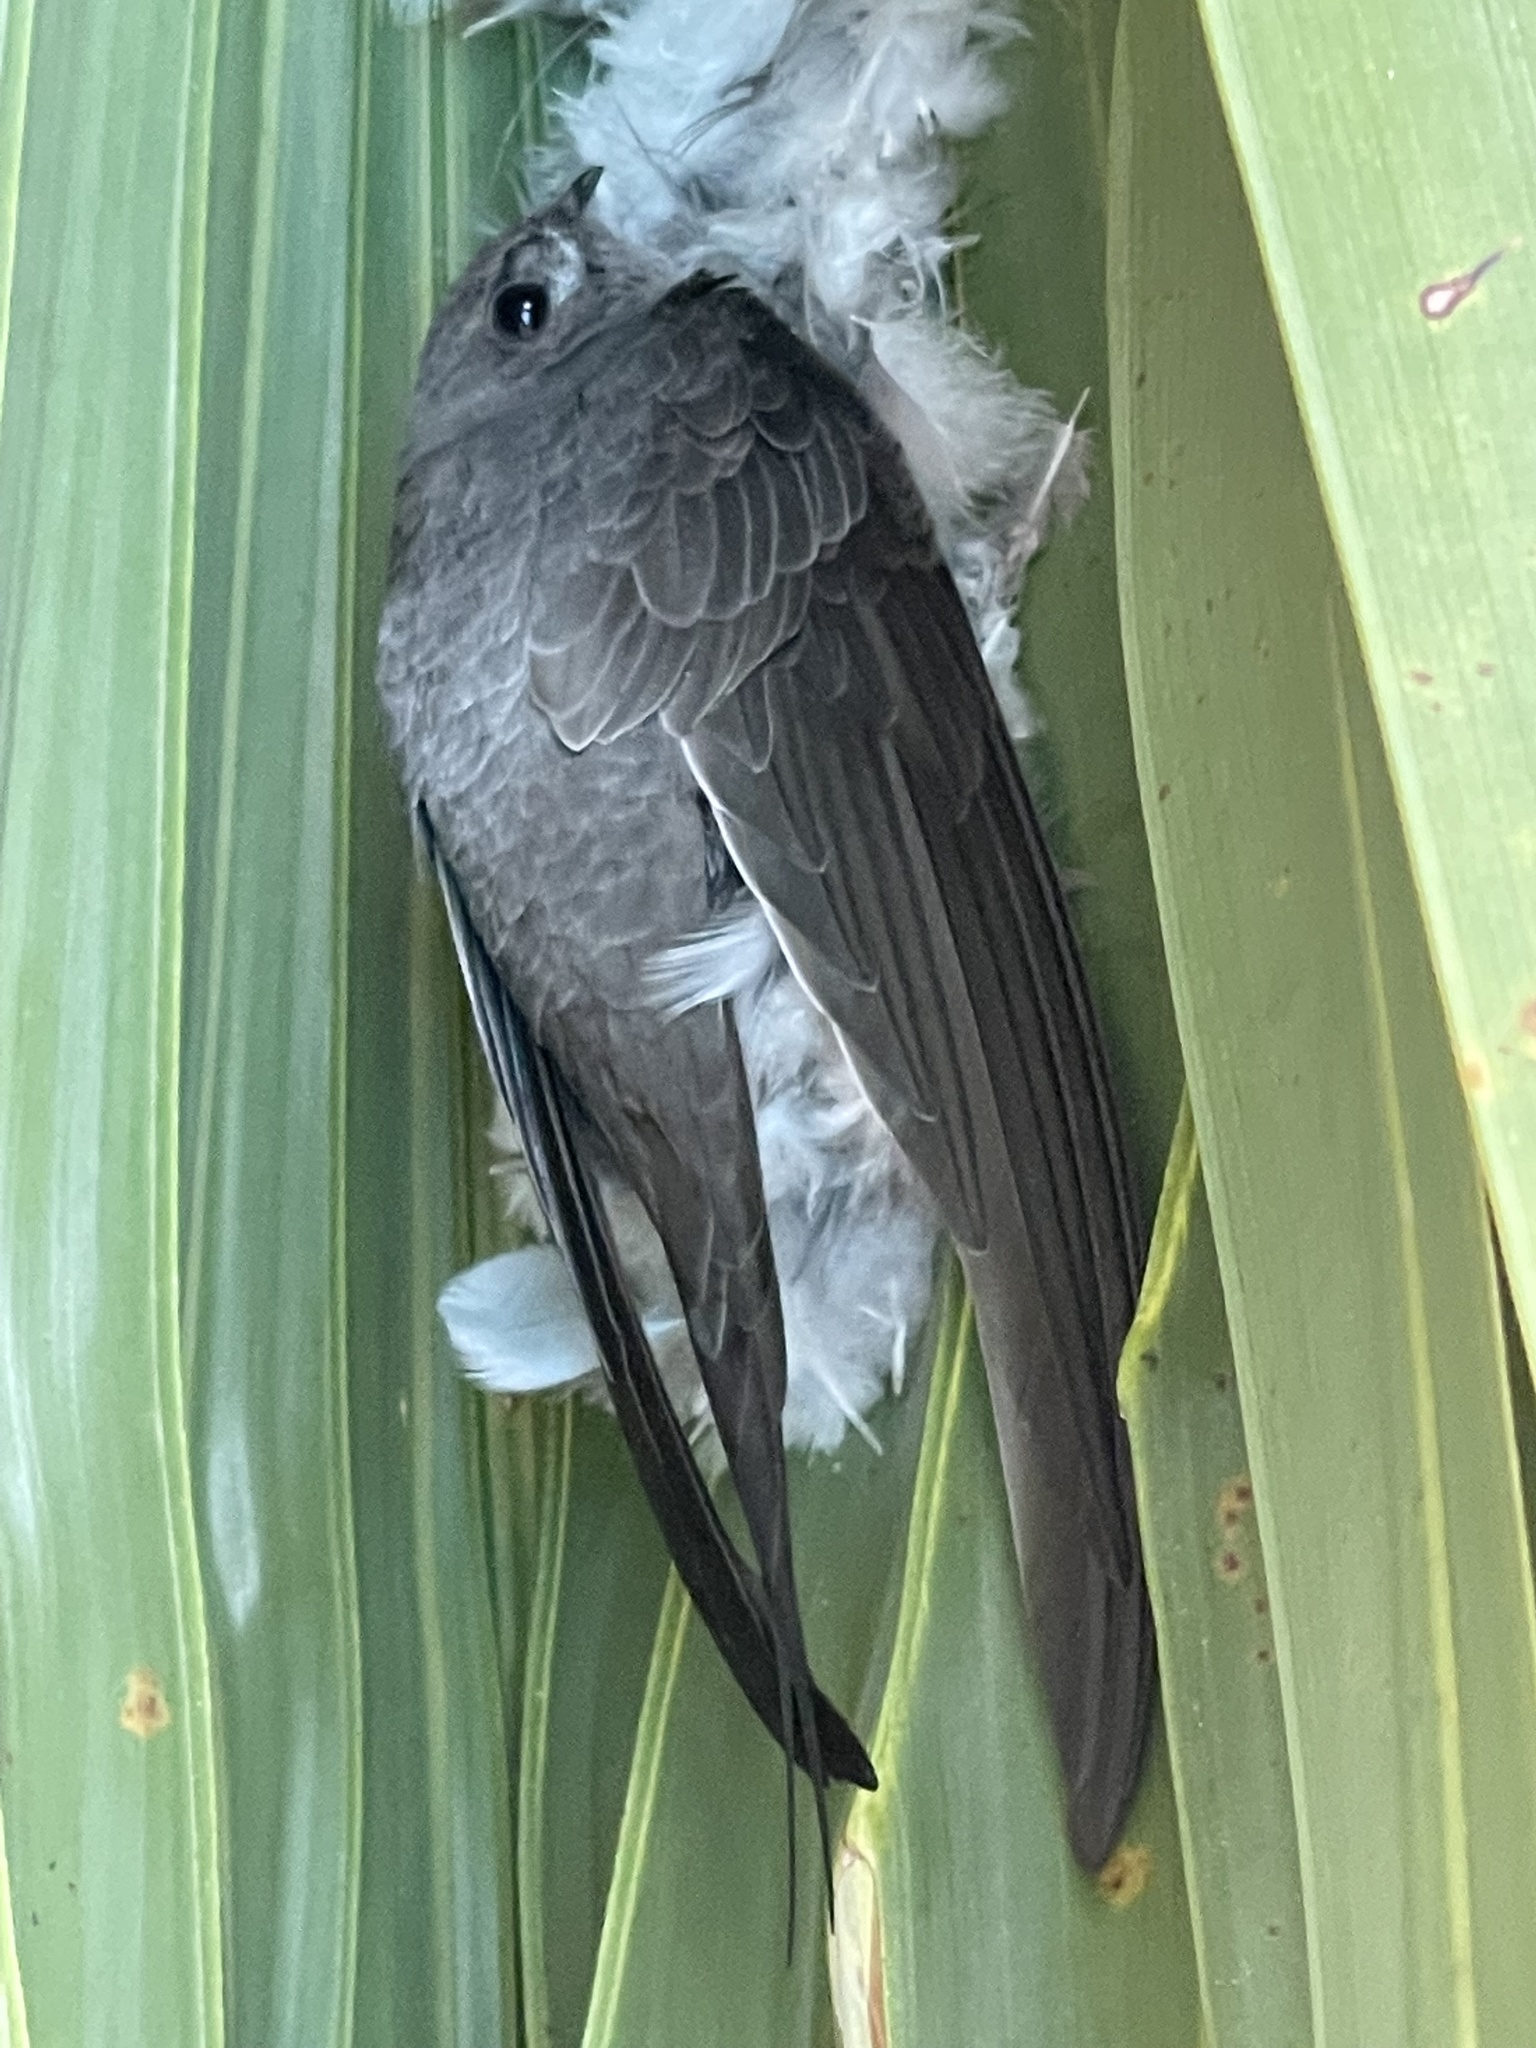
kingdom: Animalia
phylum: Chordata
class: Aves
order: Apodiformes
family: Apodidae
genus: Cypsiurus
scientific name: Cypsiurus parvus
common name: African palm swift
